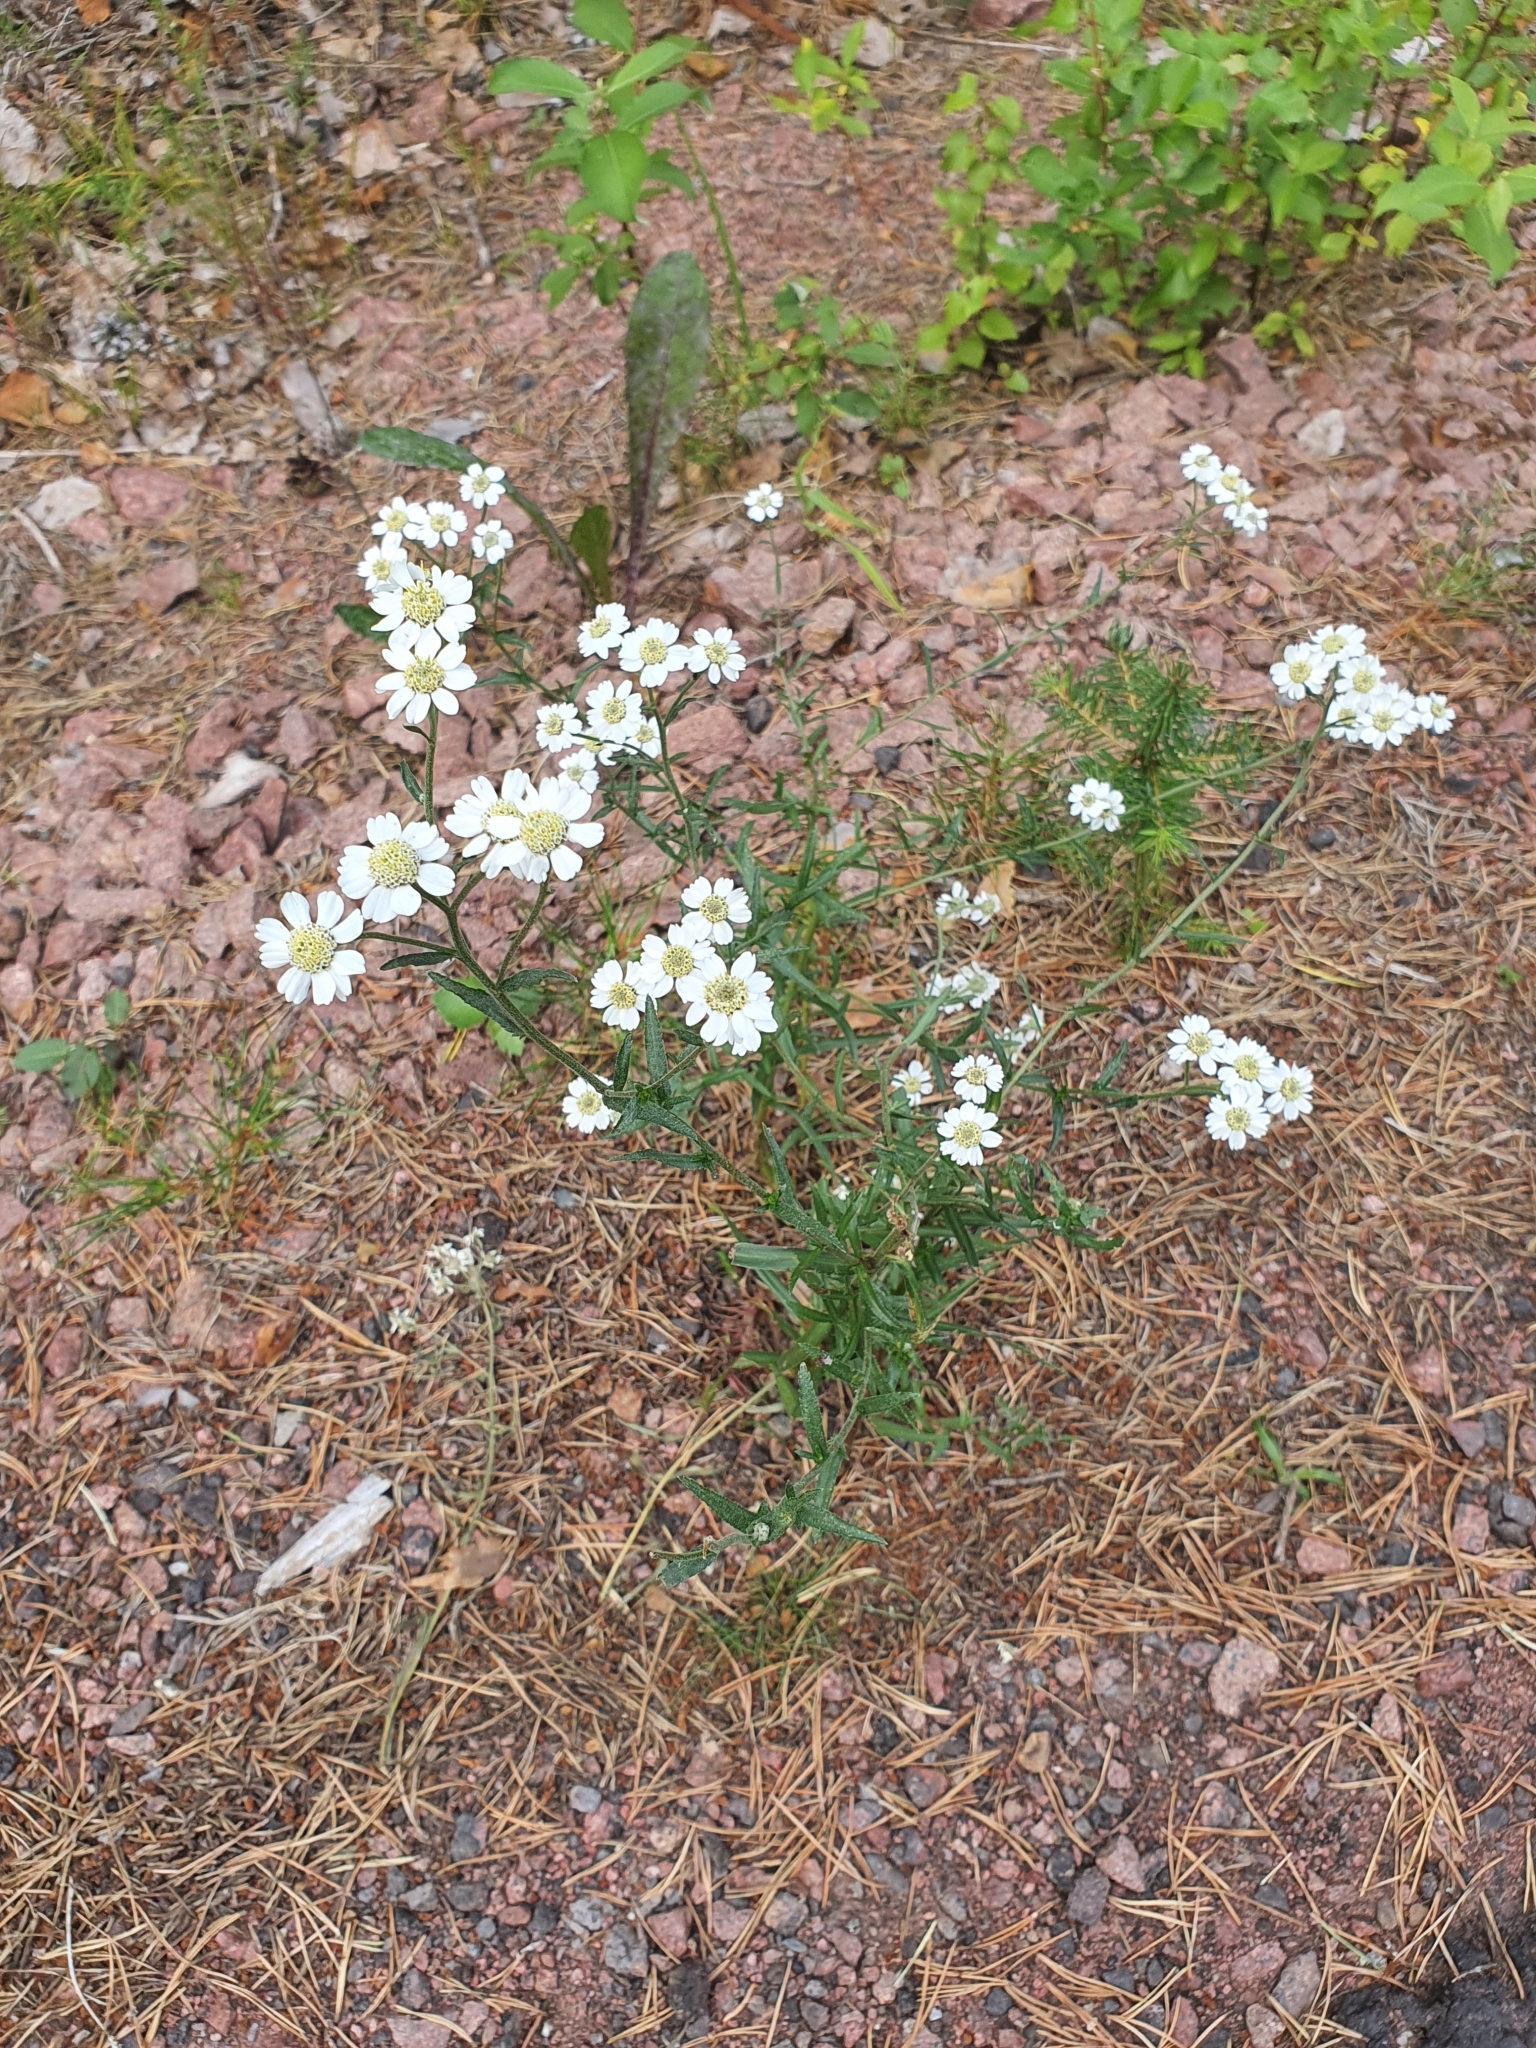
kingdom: Plantae
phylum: Tracheophyta
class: Magnoliopsida
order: Asterales
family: Asteraceae
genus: Achillea
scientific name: Achillea ptarmica
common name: Sneezeweed
